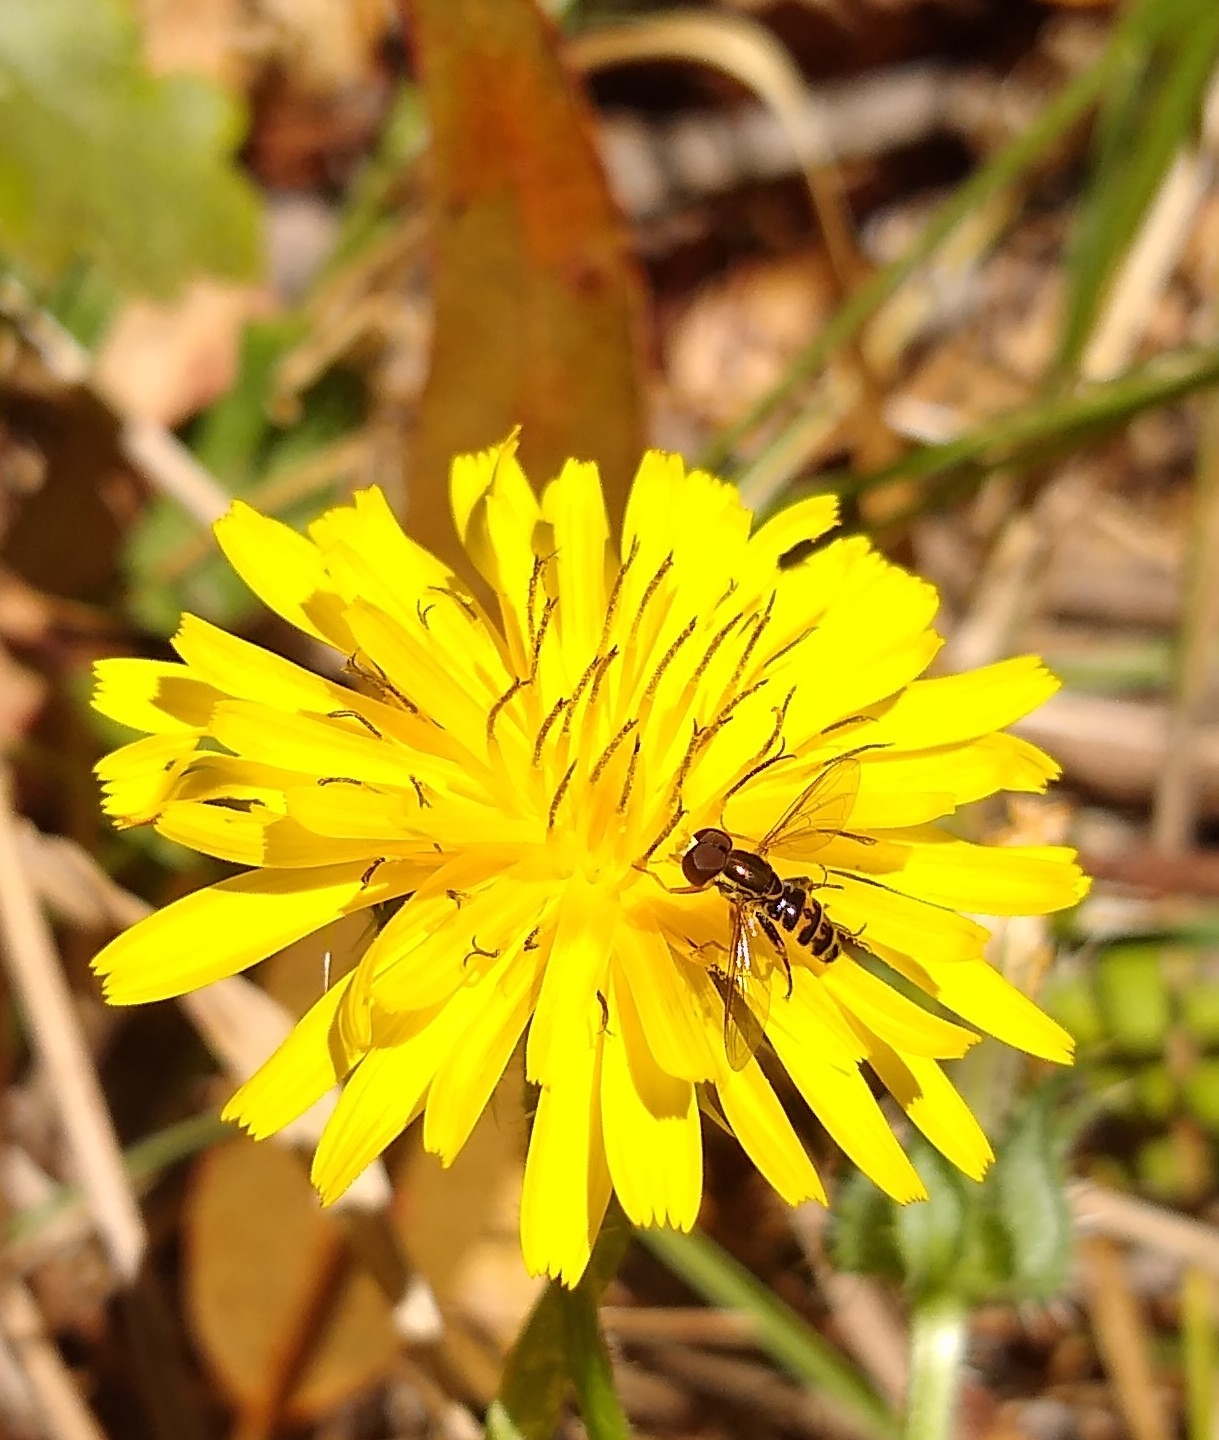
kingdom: Animalia
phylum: Arthropoda
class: Insecta
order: Diptera
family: Syrphidae
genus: Toxomerus
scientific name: Toxomerus occidentalis
